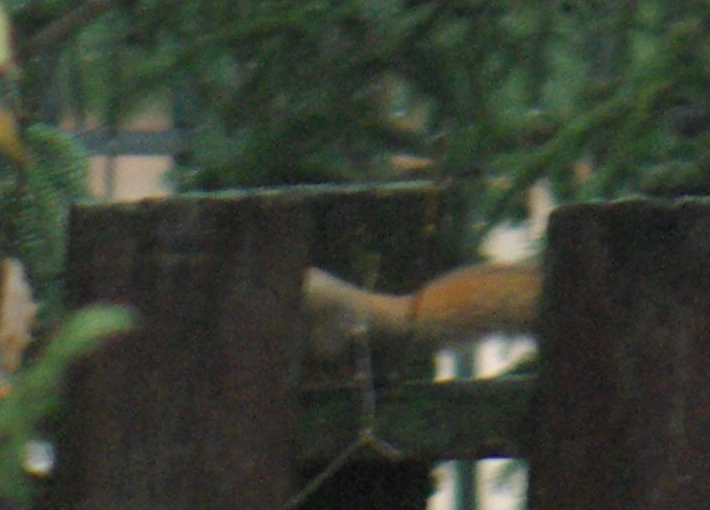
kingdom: Animalia
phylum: Chordata
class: Mammalia
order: Rodentia
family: Sciuridae
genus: Tamiasciurus
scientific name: Tamiasciurus hudsonicus
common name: Red squirrel
